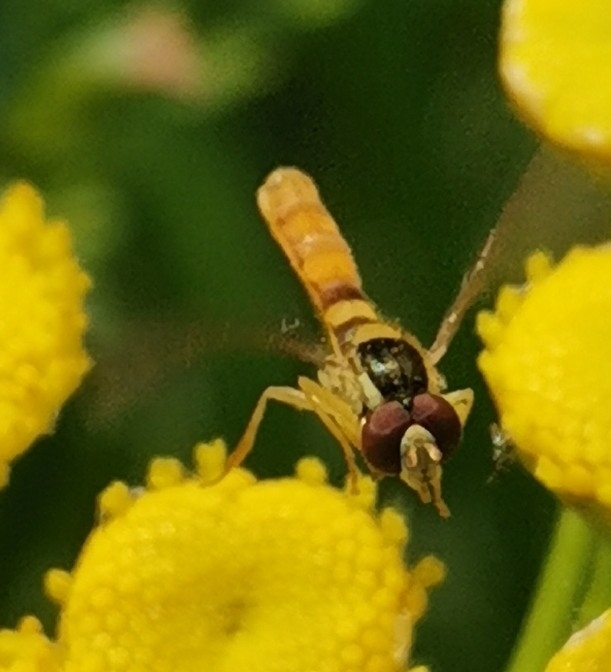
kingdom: Animalia
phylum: Arthropoda
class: Insecta
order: Diptera
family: Syrphidae
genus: Sphaerophoria
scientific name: Sphaerophoria scripta
